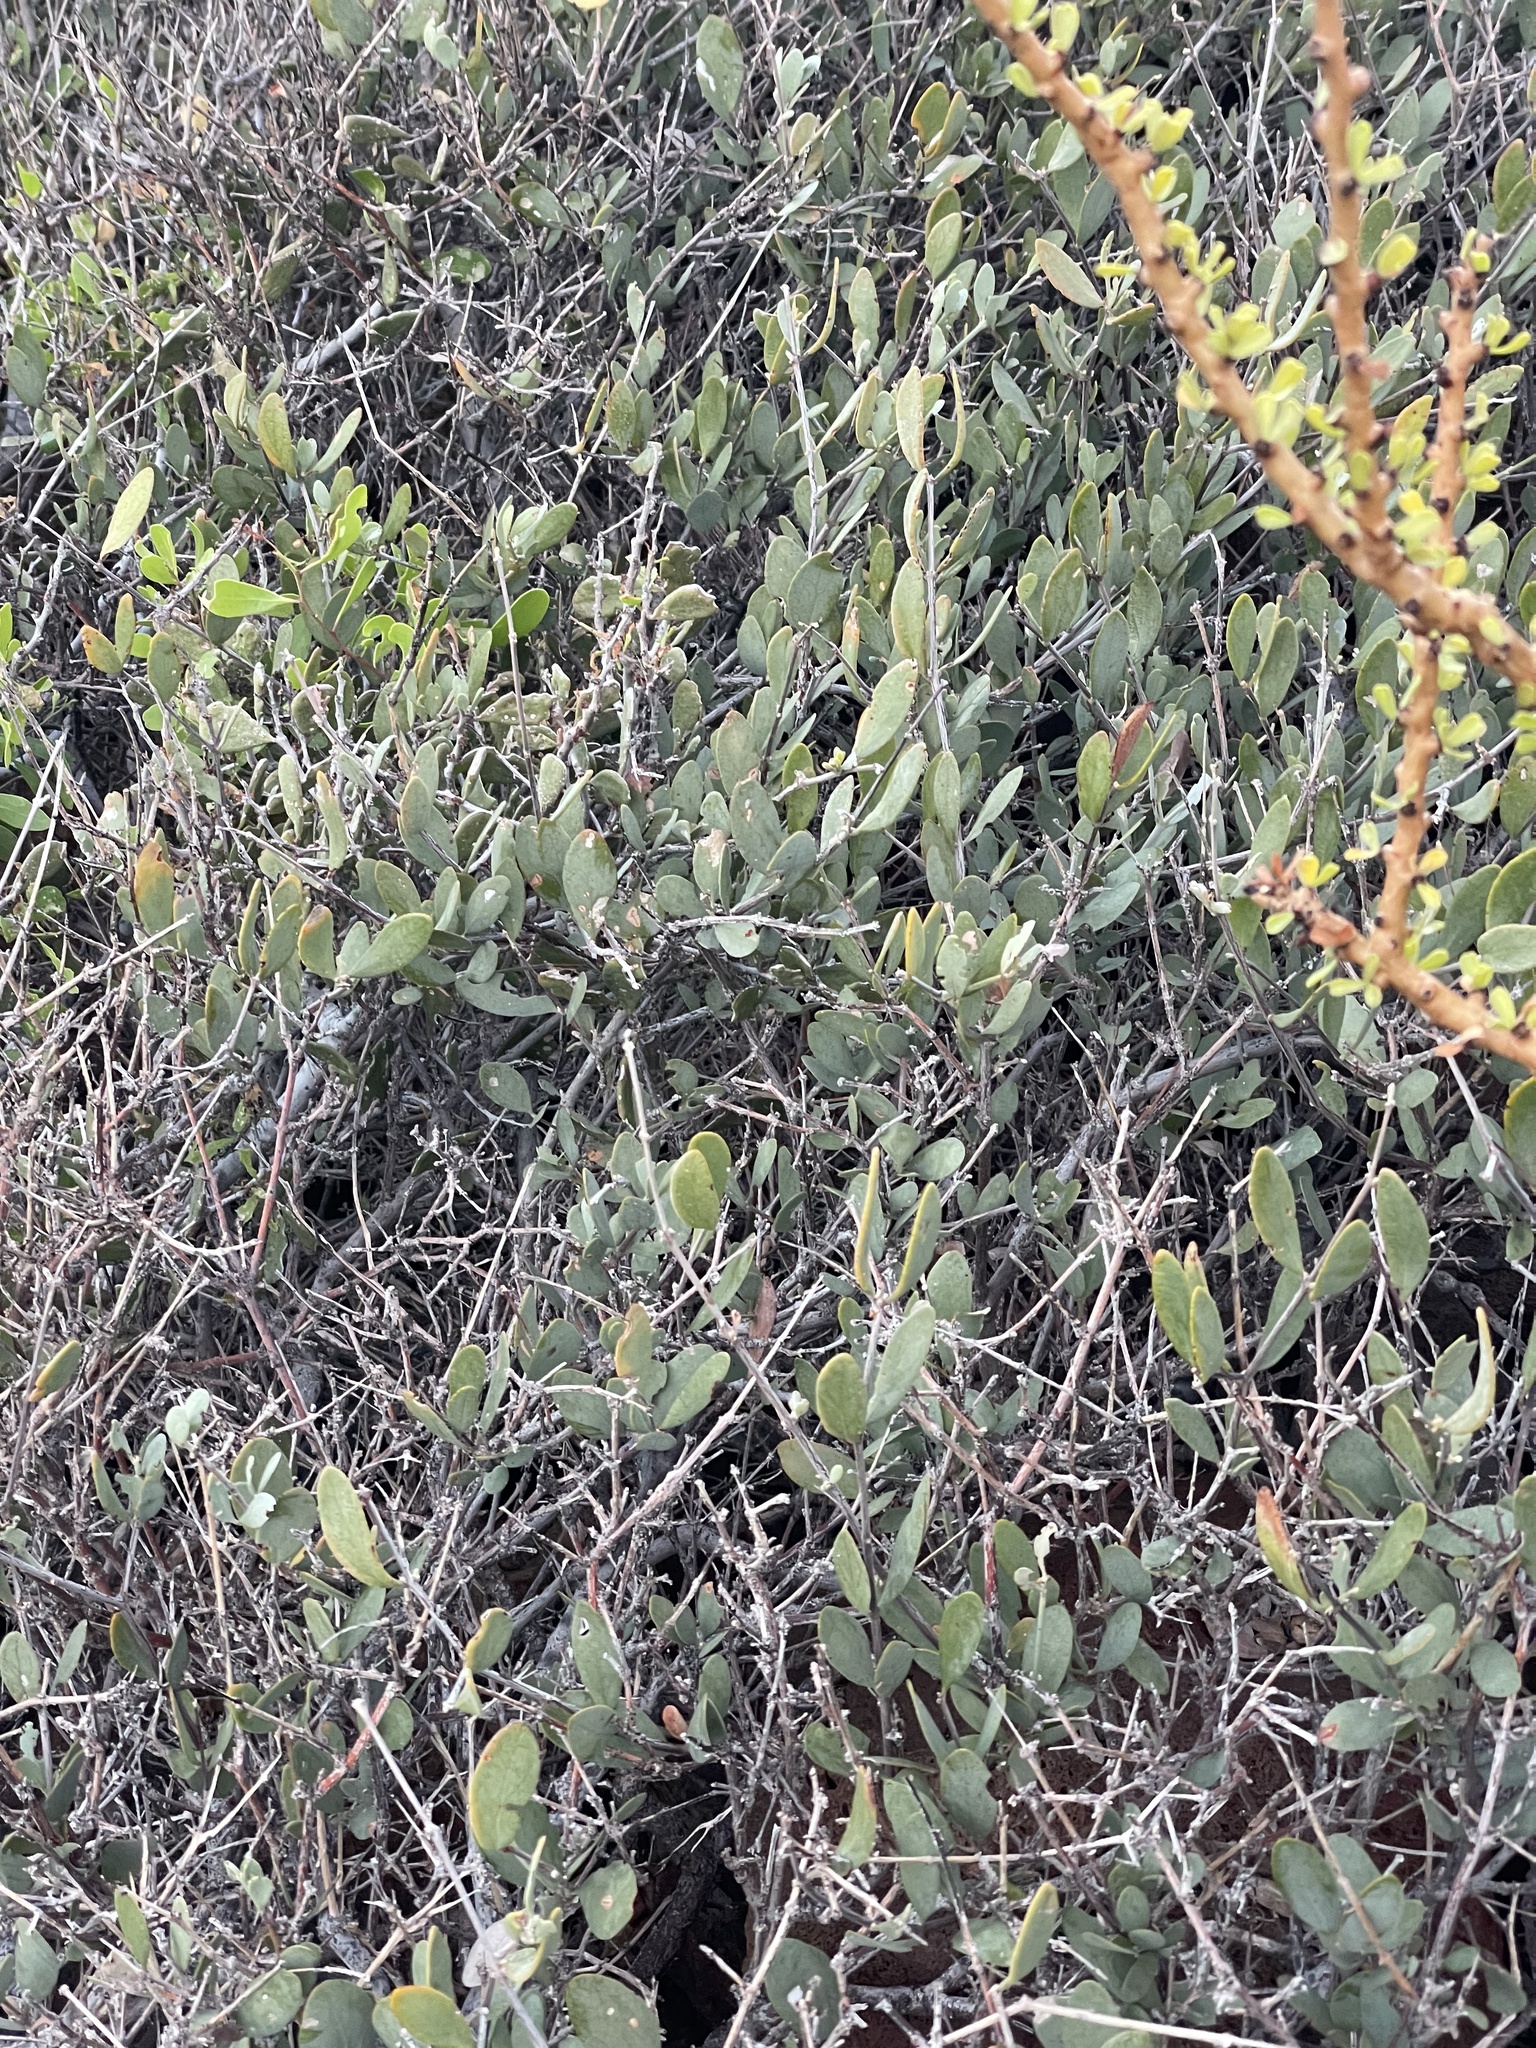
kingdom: Plantae
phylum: Tracheophyta
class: Magnoliopsida
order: Caryophyllales
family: Simmondsiaceae
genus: Simmondsia
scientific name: Simmondsia chinensis
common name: Jojoba
